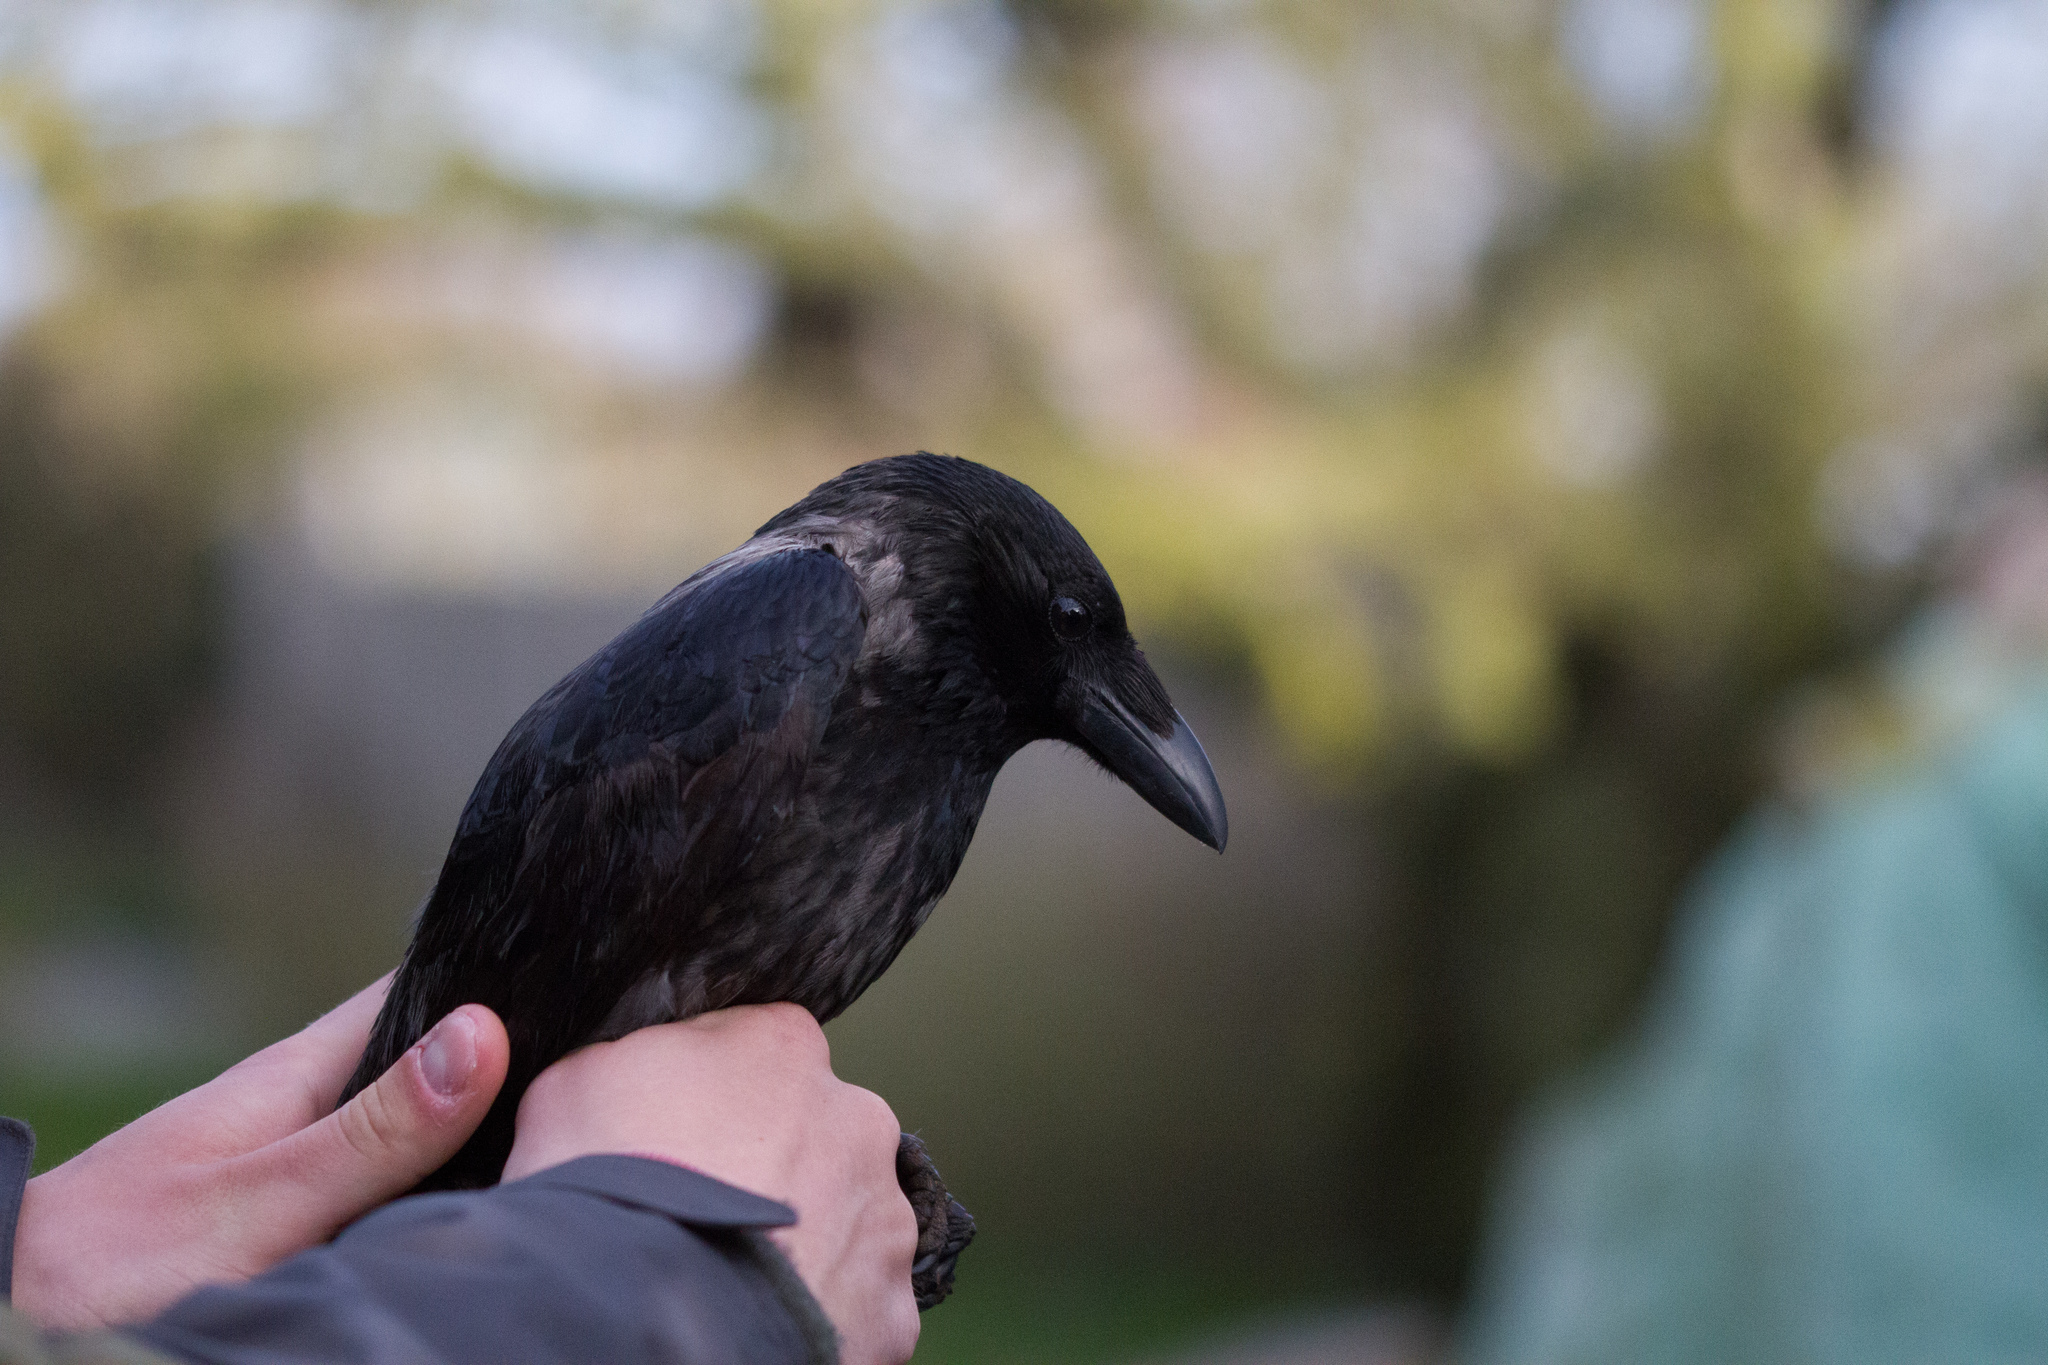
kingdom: Animalia
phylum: Chordata
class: Aves
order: Passeriformes
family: Corvidae
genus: Corvus
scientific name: Corvus
